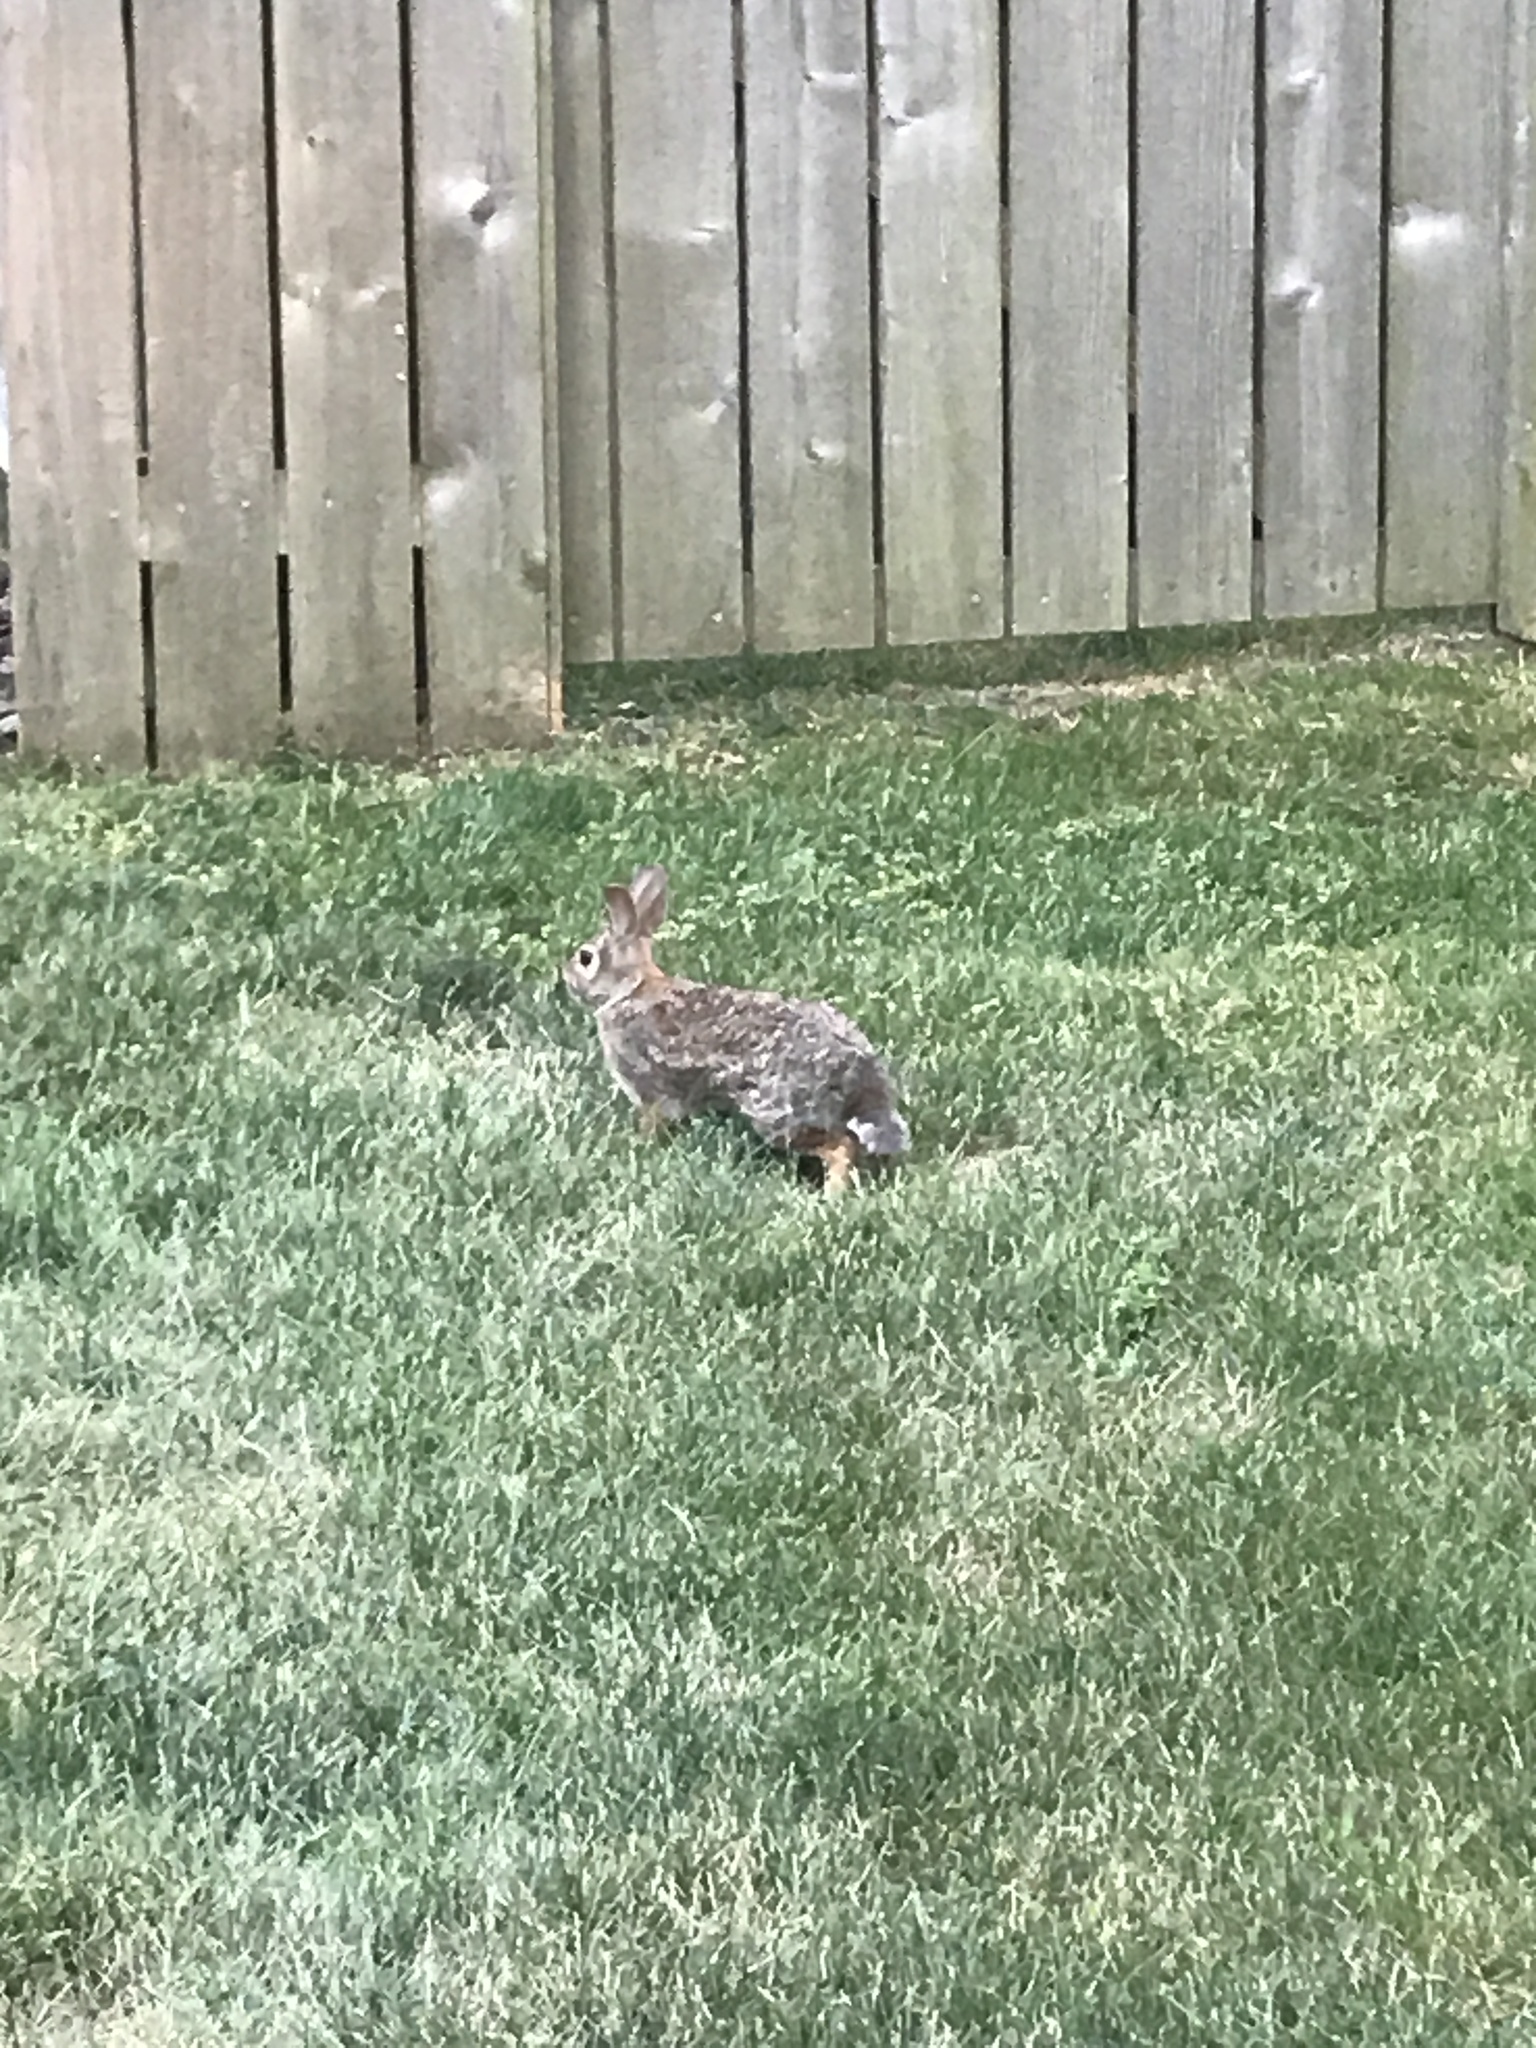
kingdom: Animalia
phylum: Chordata
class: Mammalia
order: Lagomorpha
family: Leporidae
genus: Sylvilagus
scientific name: Sylvilagus floridanus
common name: Eastern cottontail
